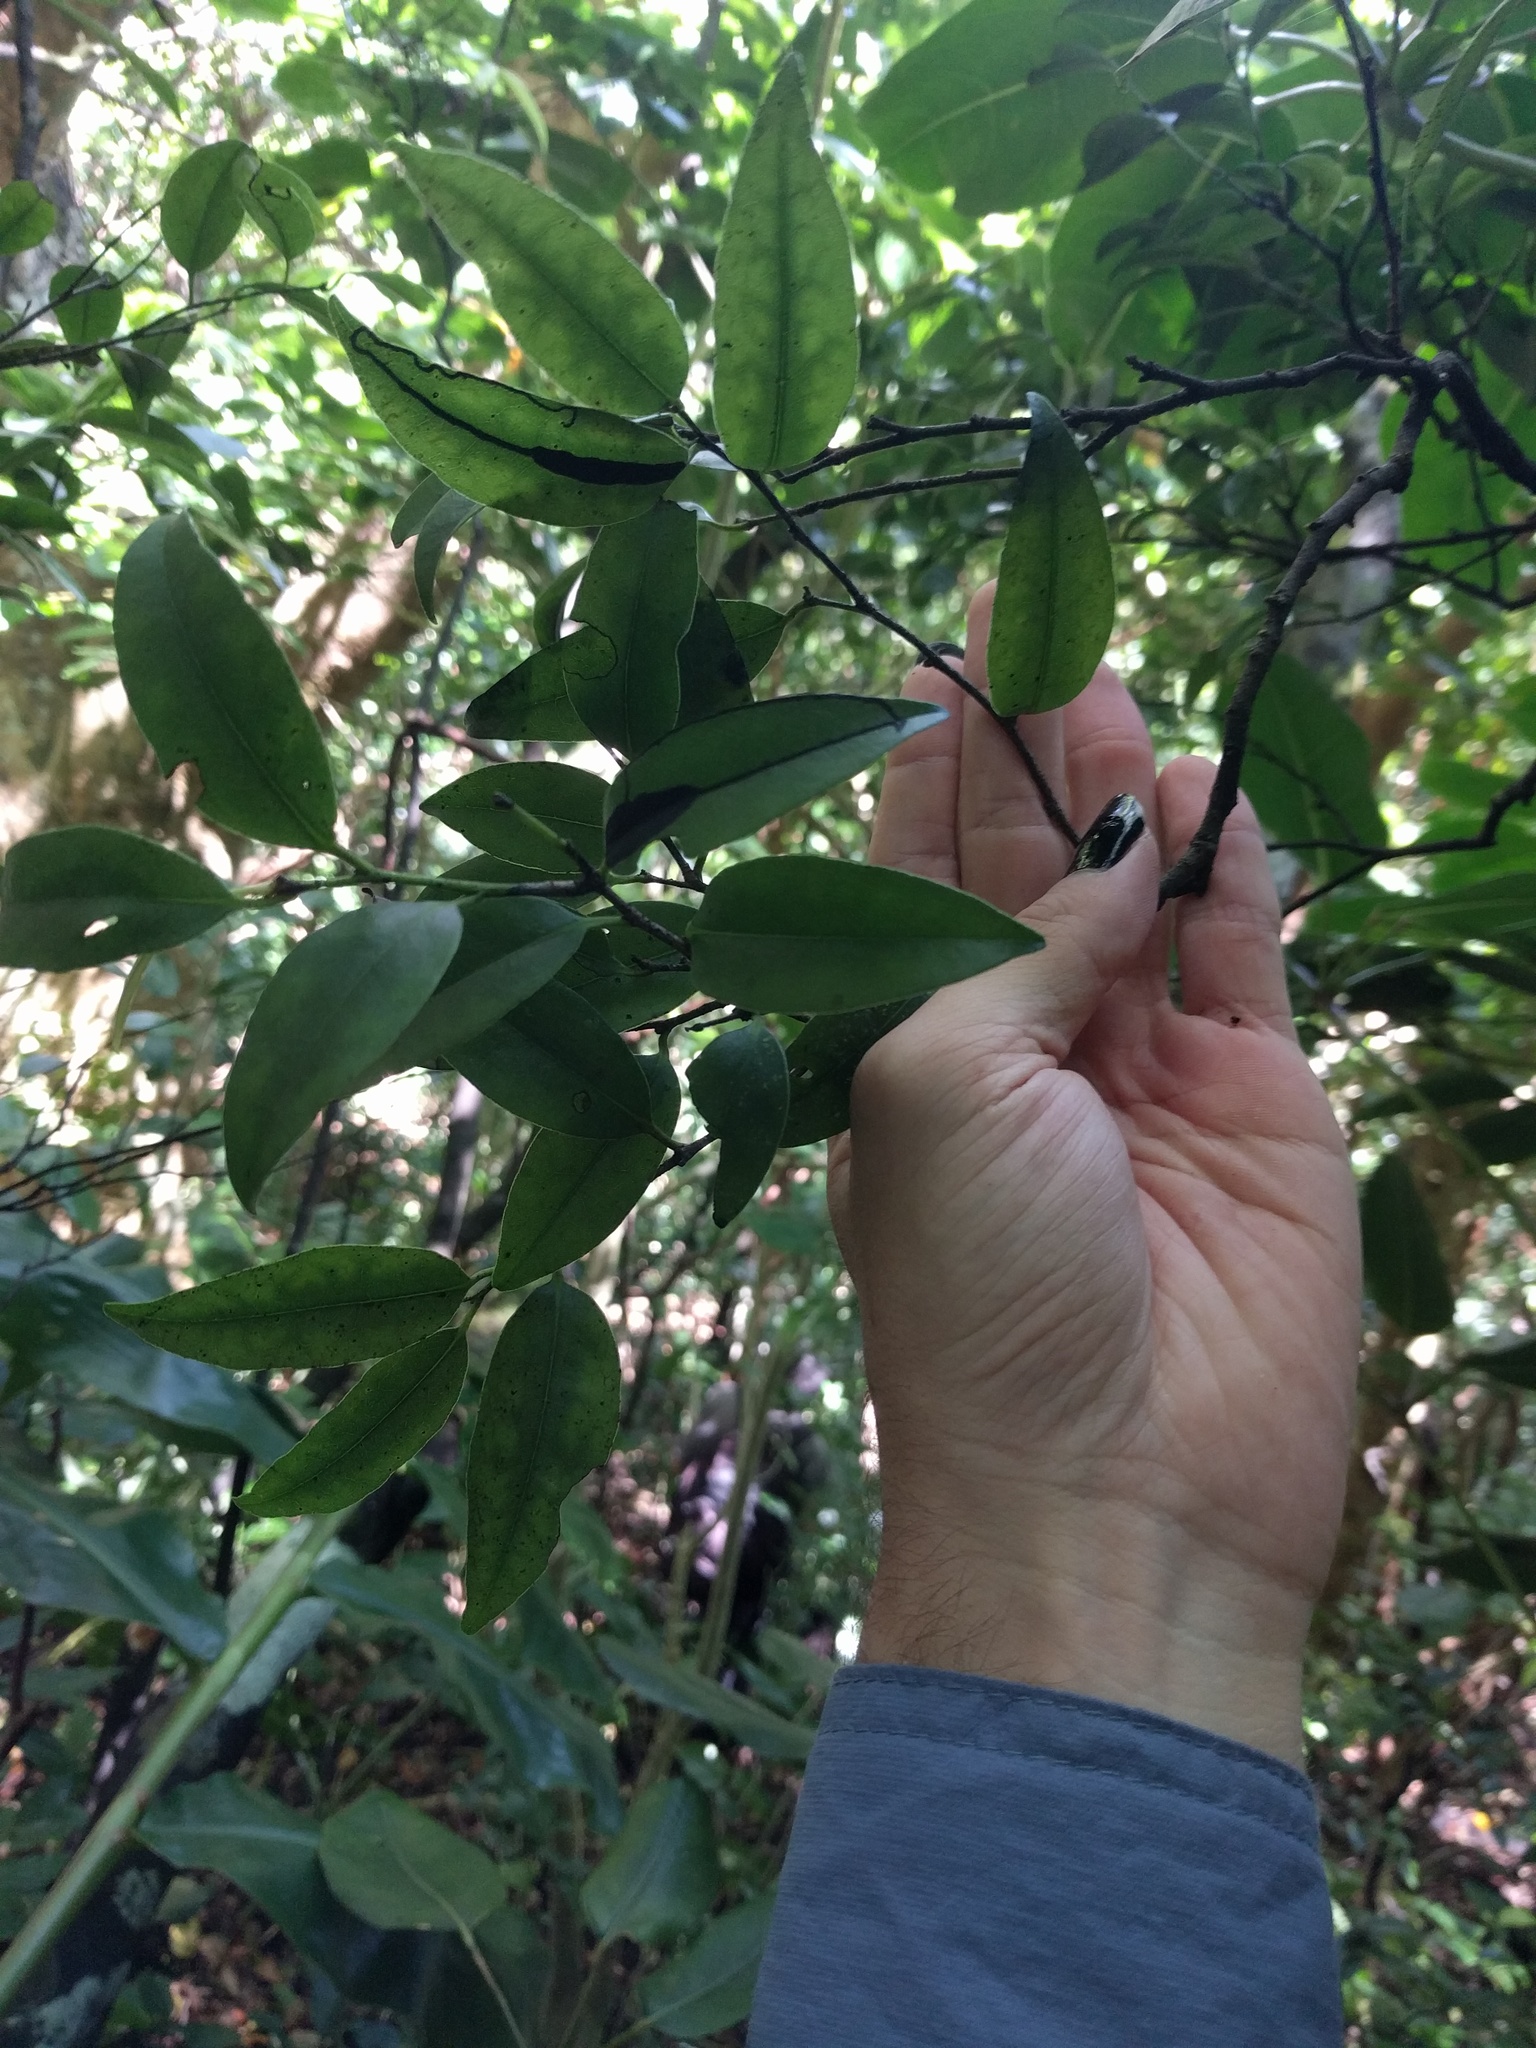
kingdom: Plantae
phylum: Tracheophyta
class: Magnoliopsida
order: Ericales
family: Ebenaceae
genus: Diospyros
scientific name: Diospyros sandwicensis
